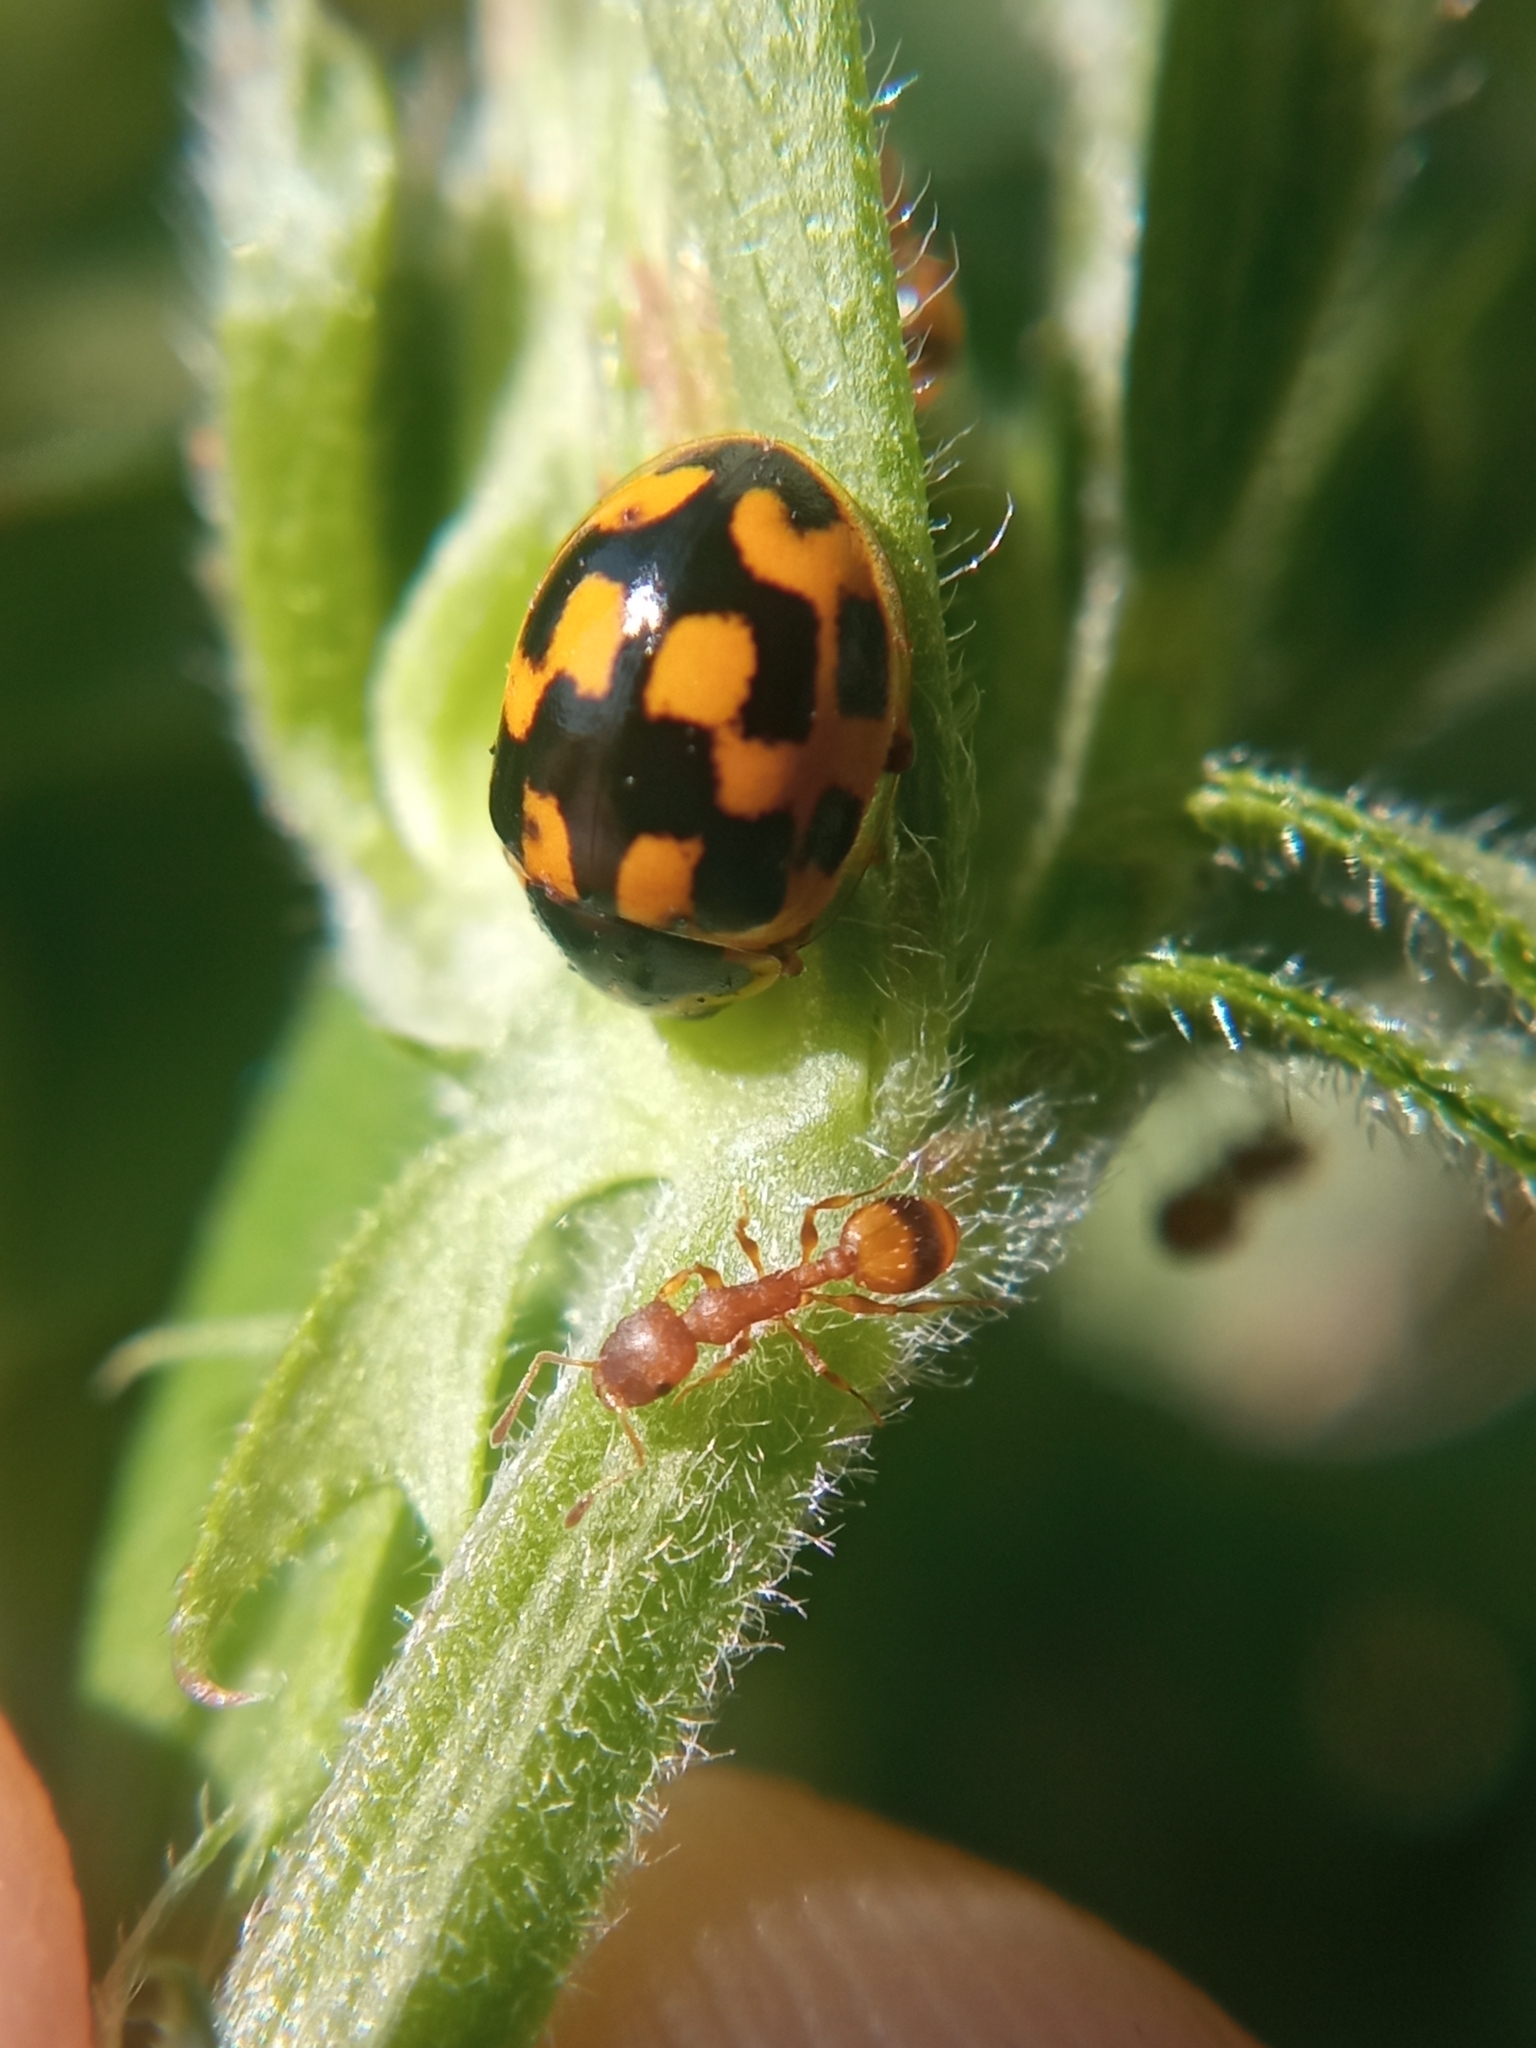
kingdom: Animalia
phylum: Arthropoda
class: Insecta
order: Coleoptera
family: Coccinellidae
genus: Propylaea
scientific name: Propylaea quatuordecimpunctata
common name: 14-spotted ladybird beetle
